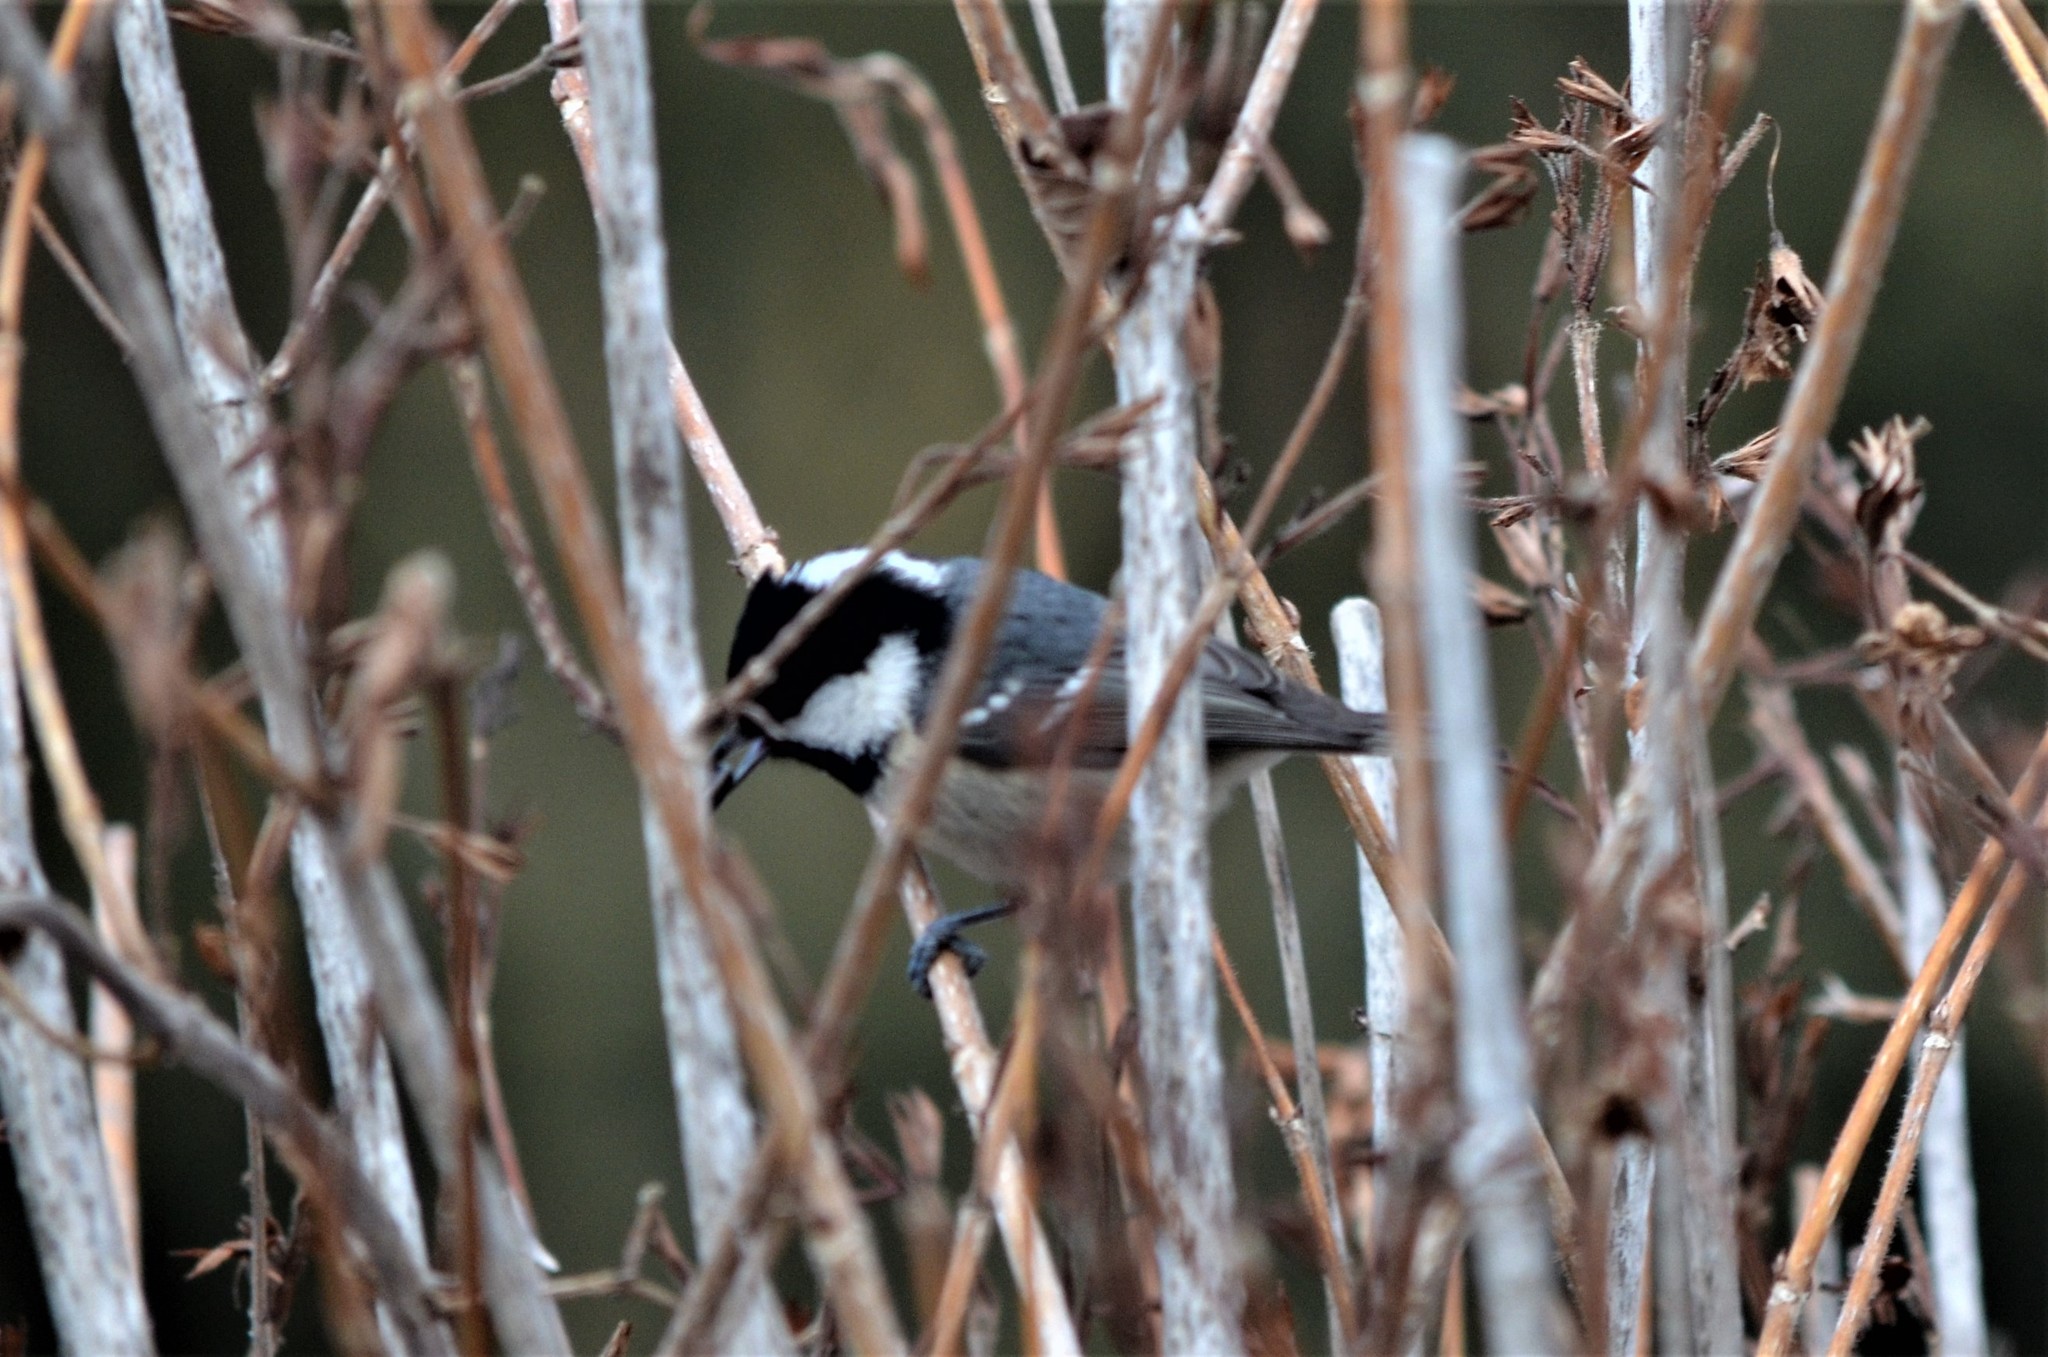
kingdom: Animalia
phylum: Chordata
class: Aves
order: Passeriformes
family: Paridae
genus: Periparus
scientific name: Periparus ater
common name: Coal tit
